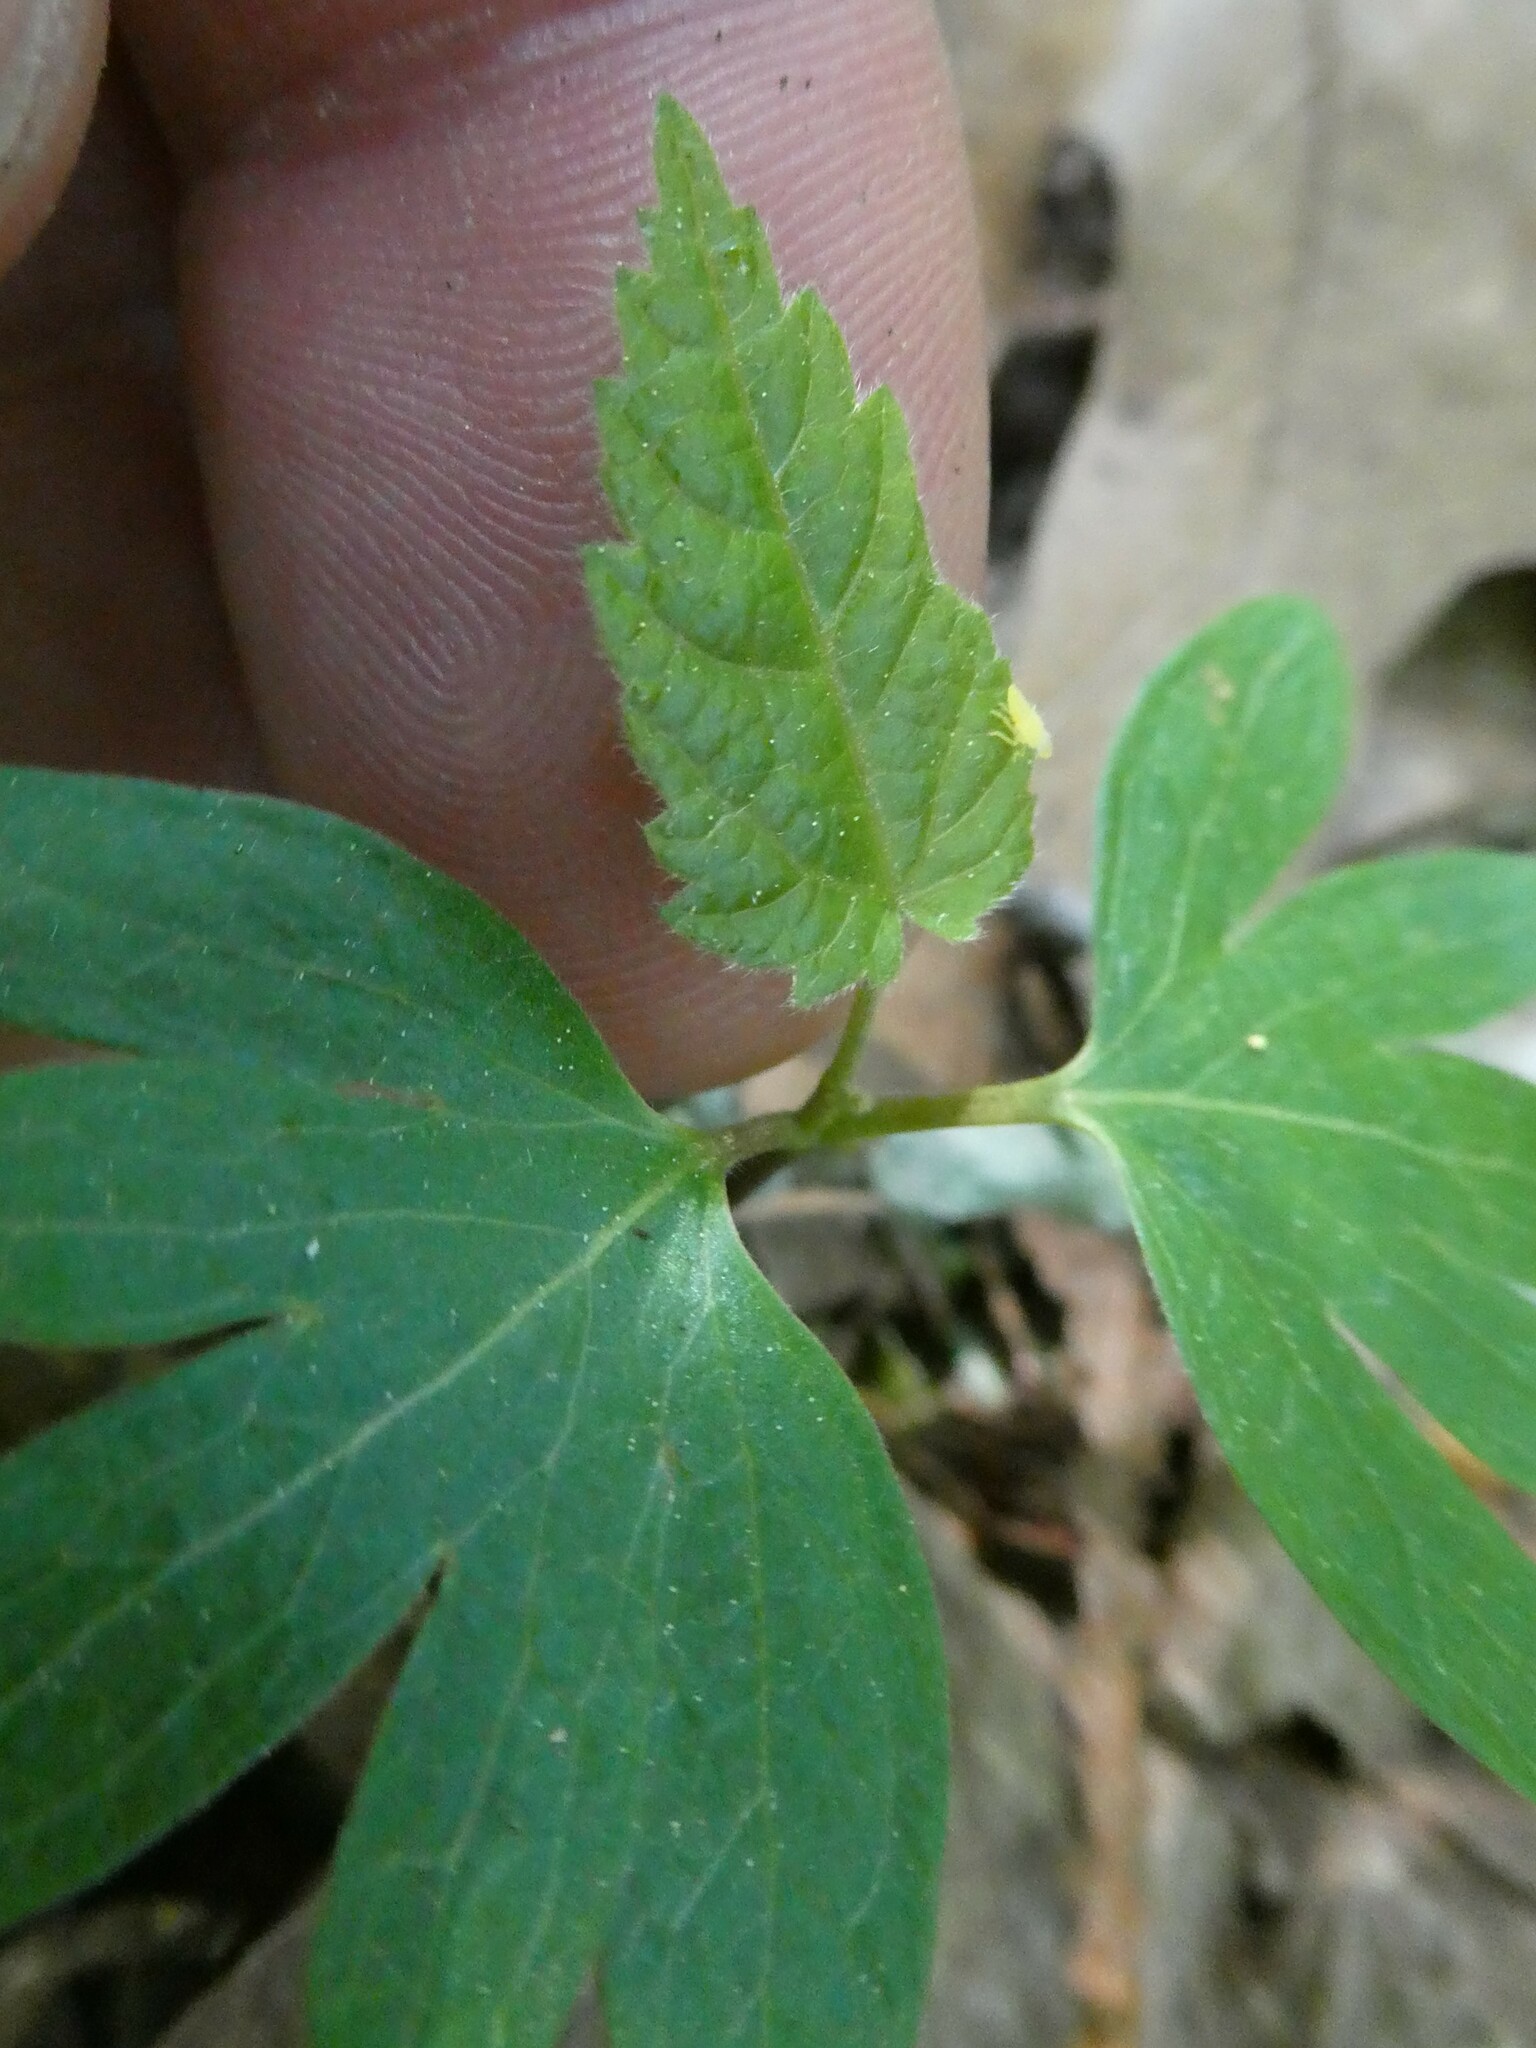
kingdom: Plantae
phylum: Tracheophyta
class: Magnoliopsida
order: Malvales
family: Malvaceae
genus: Tilia
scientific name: Tilia americana
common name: Basswood
